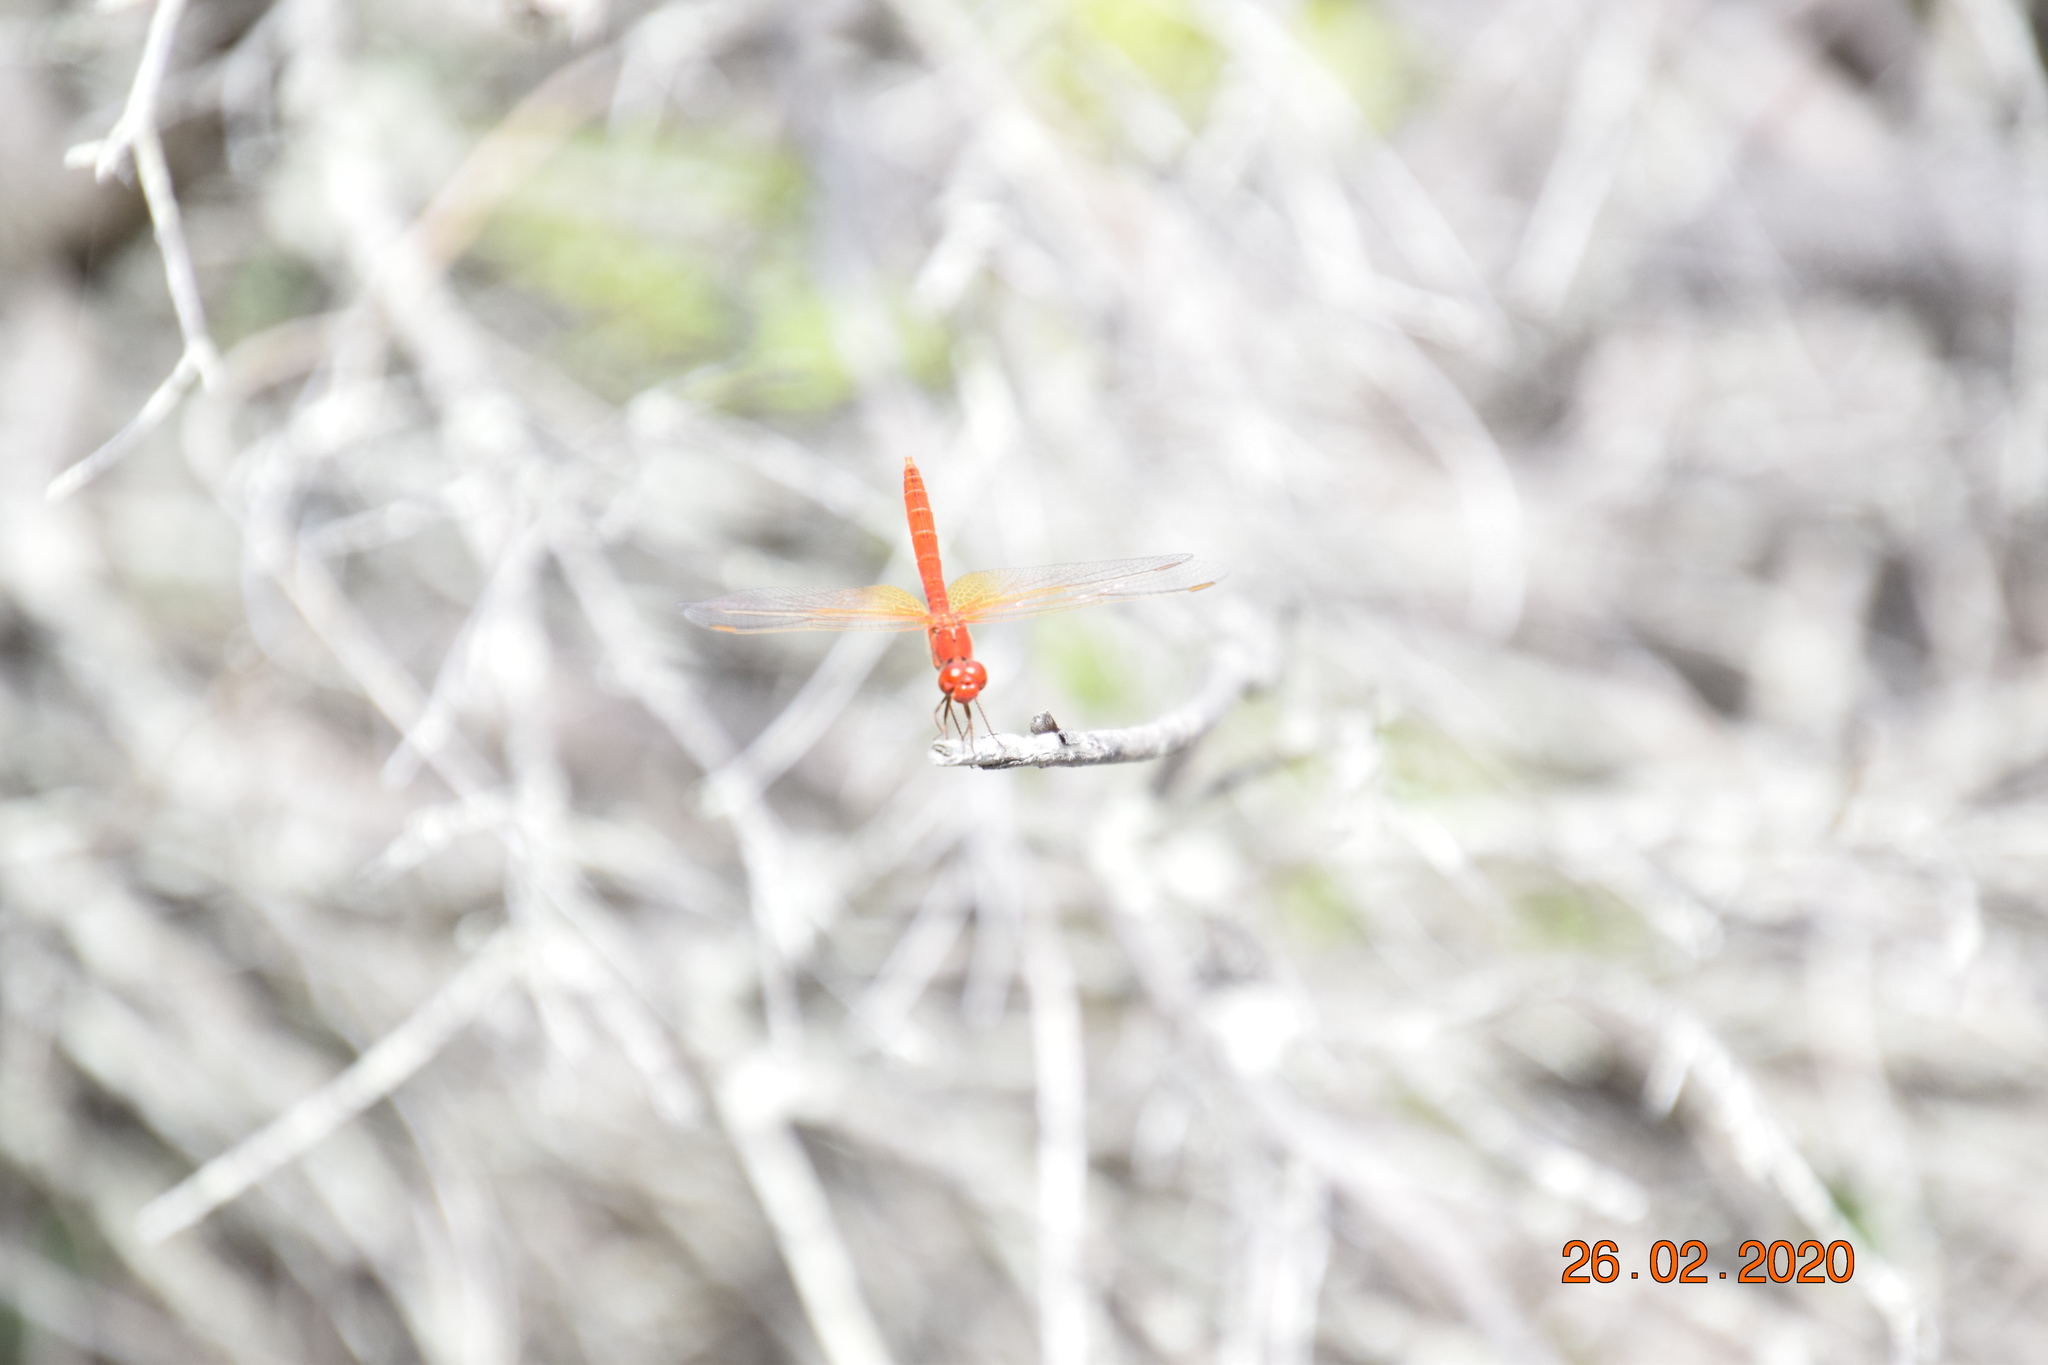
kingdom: Animalia
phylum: Arthropoda
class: Insecta
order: Odonata
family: Libellulidae
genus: Diplacodes
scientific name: Diplacodes haematodes
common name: Scarlet percher
